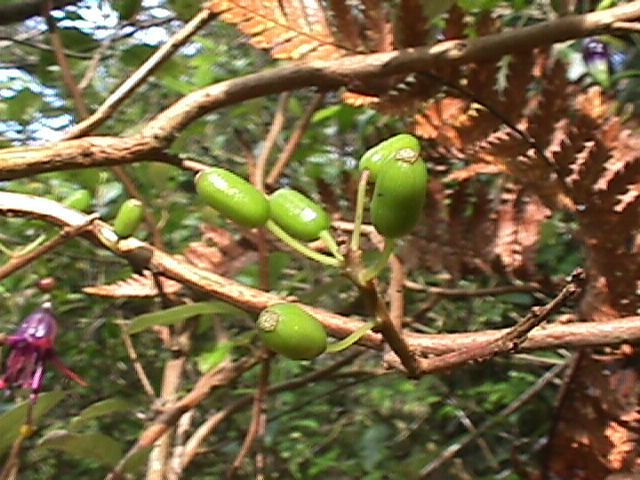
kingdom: Plantae
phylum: Tracheophyta
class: Magnoliopsida
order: Myrtales
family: Onagraceae
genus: Fuchsia
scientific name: Fuchsia excorticata
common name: Tree fuchsia
